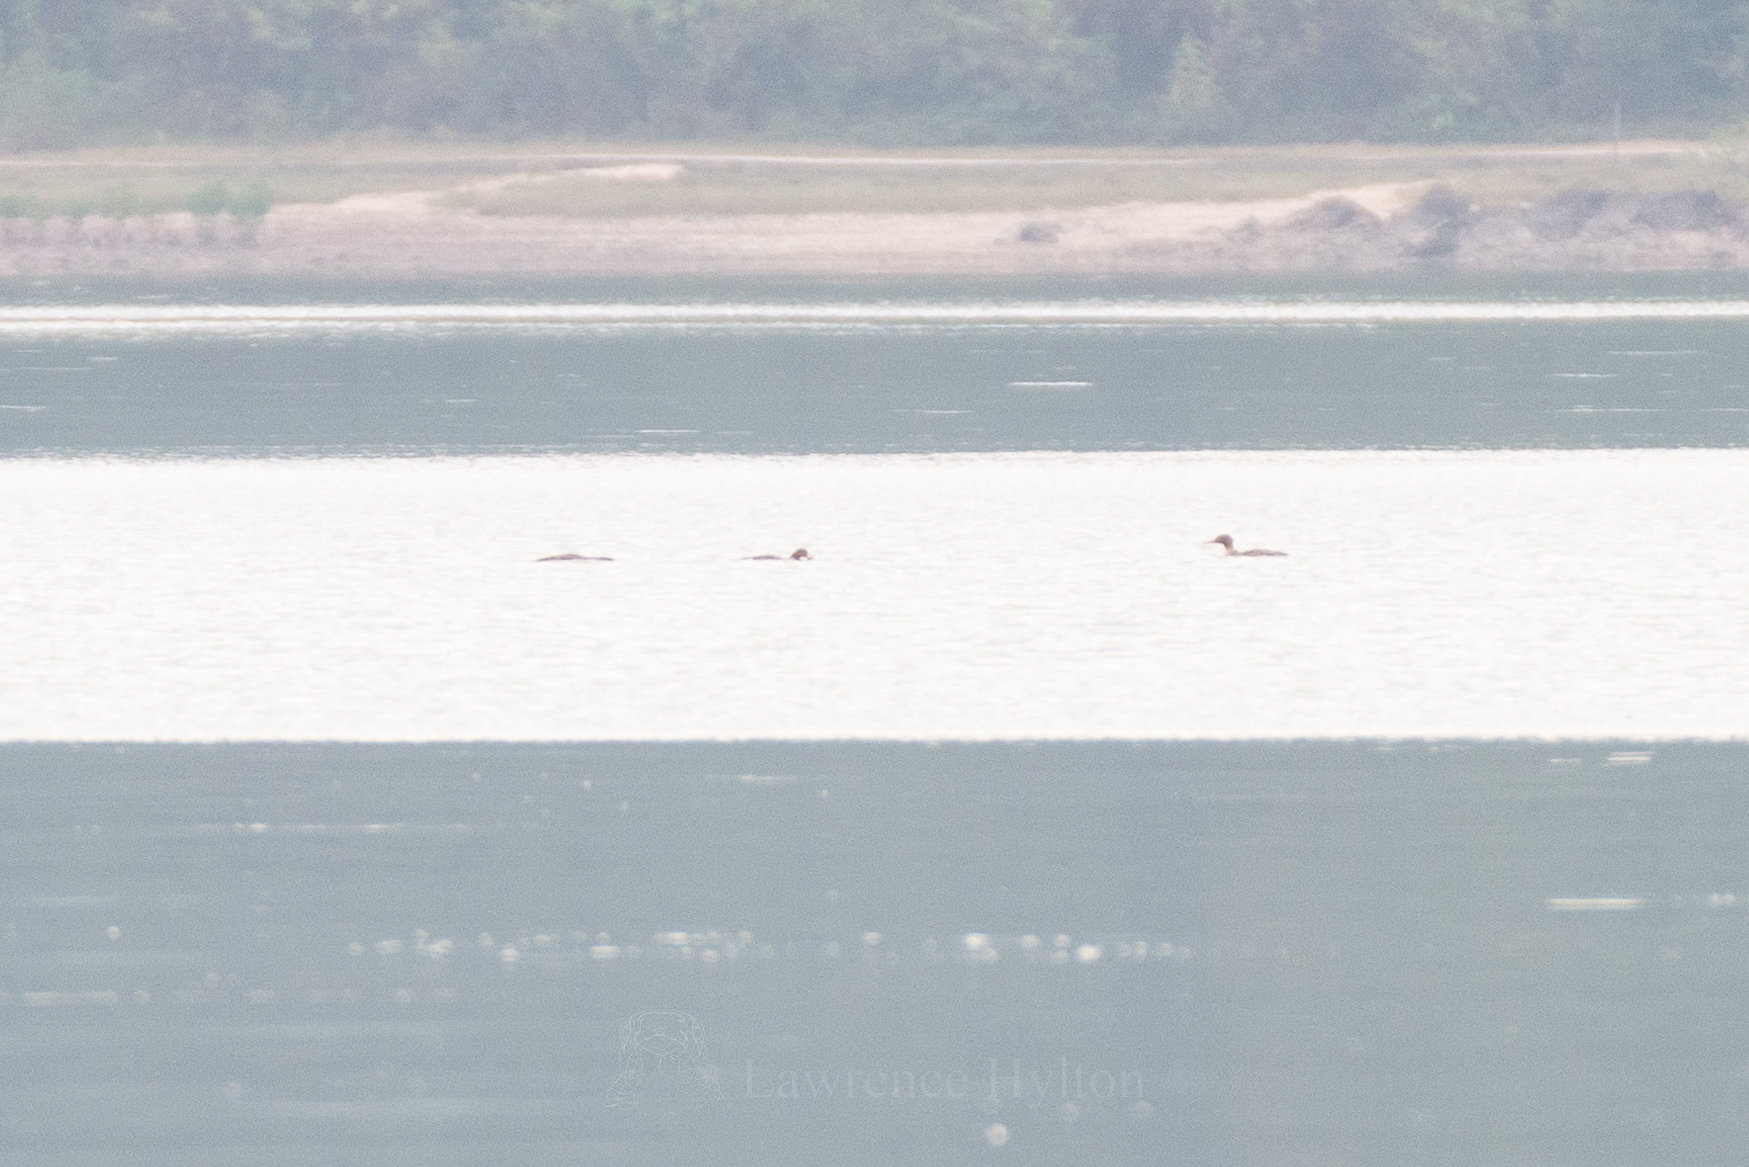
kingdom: Animalia
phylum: Chordata
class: Aves
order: Anseriformes
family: Anatidae
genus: Mergus
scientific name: Mergus serrator
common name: Red-breasted merganser
